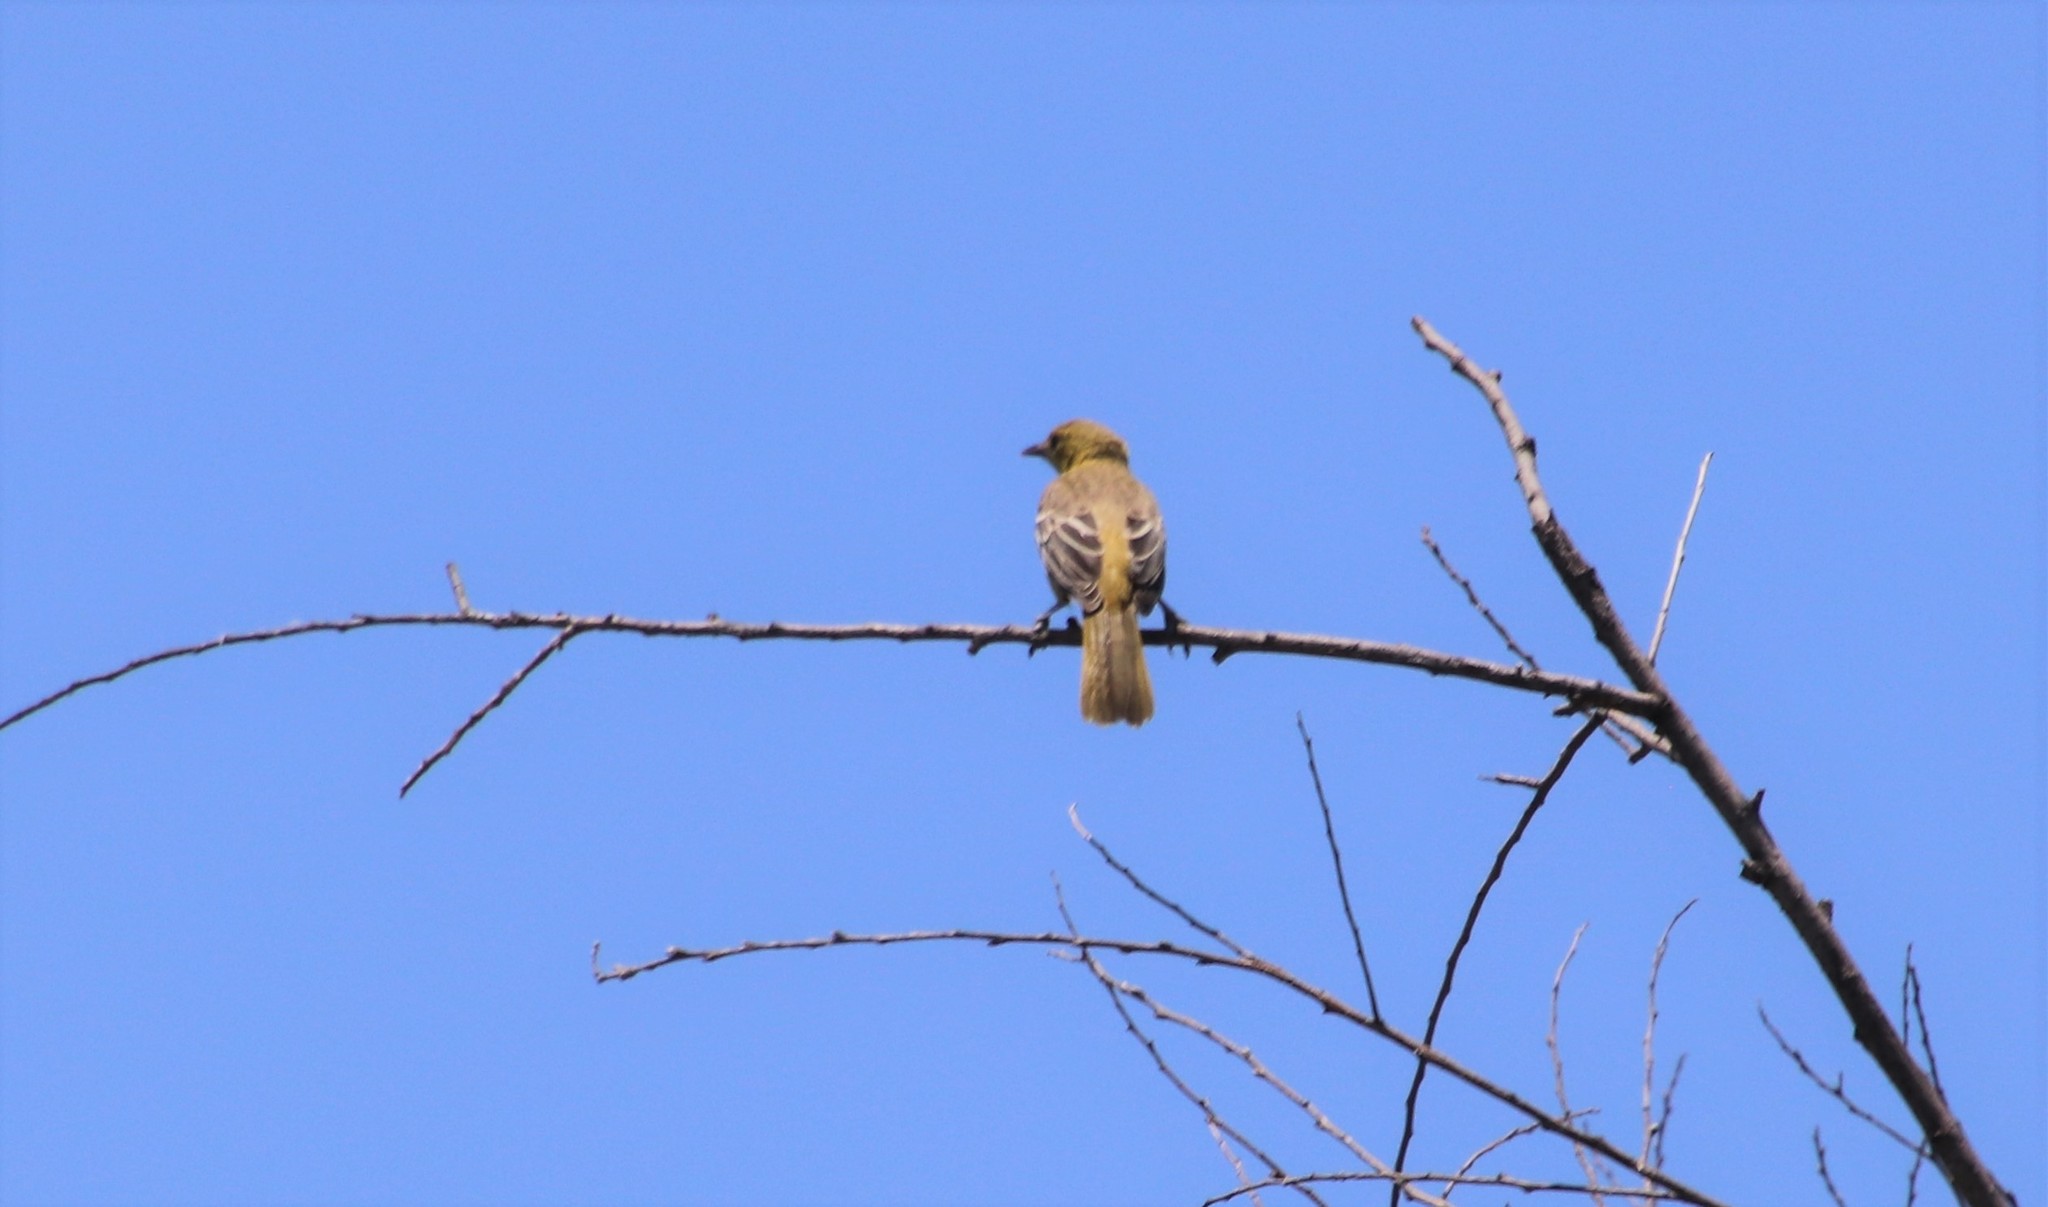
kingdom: Animalia
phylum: Chordata
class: Aves
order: Passeriformes
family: Icteridae
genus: Icterus
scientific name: Icterus cucullatus
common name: Hooded oriole
